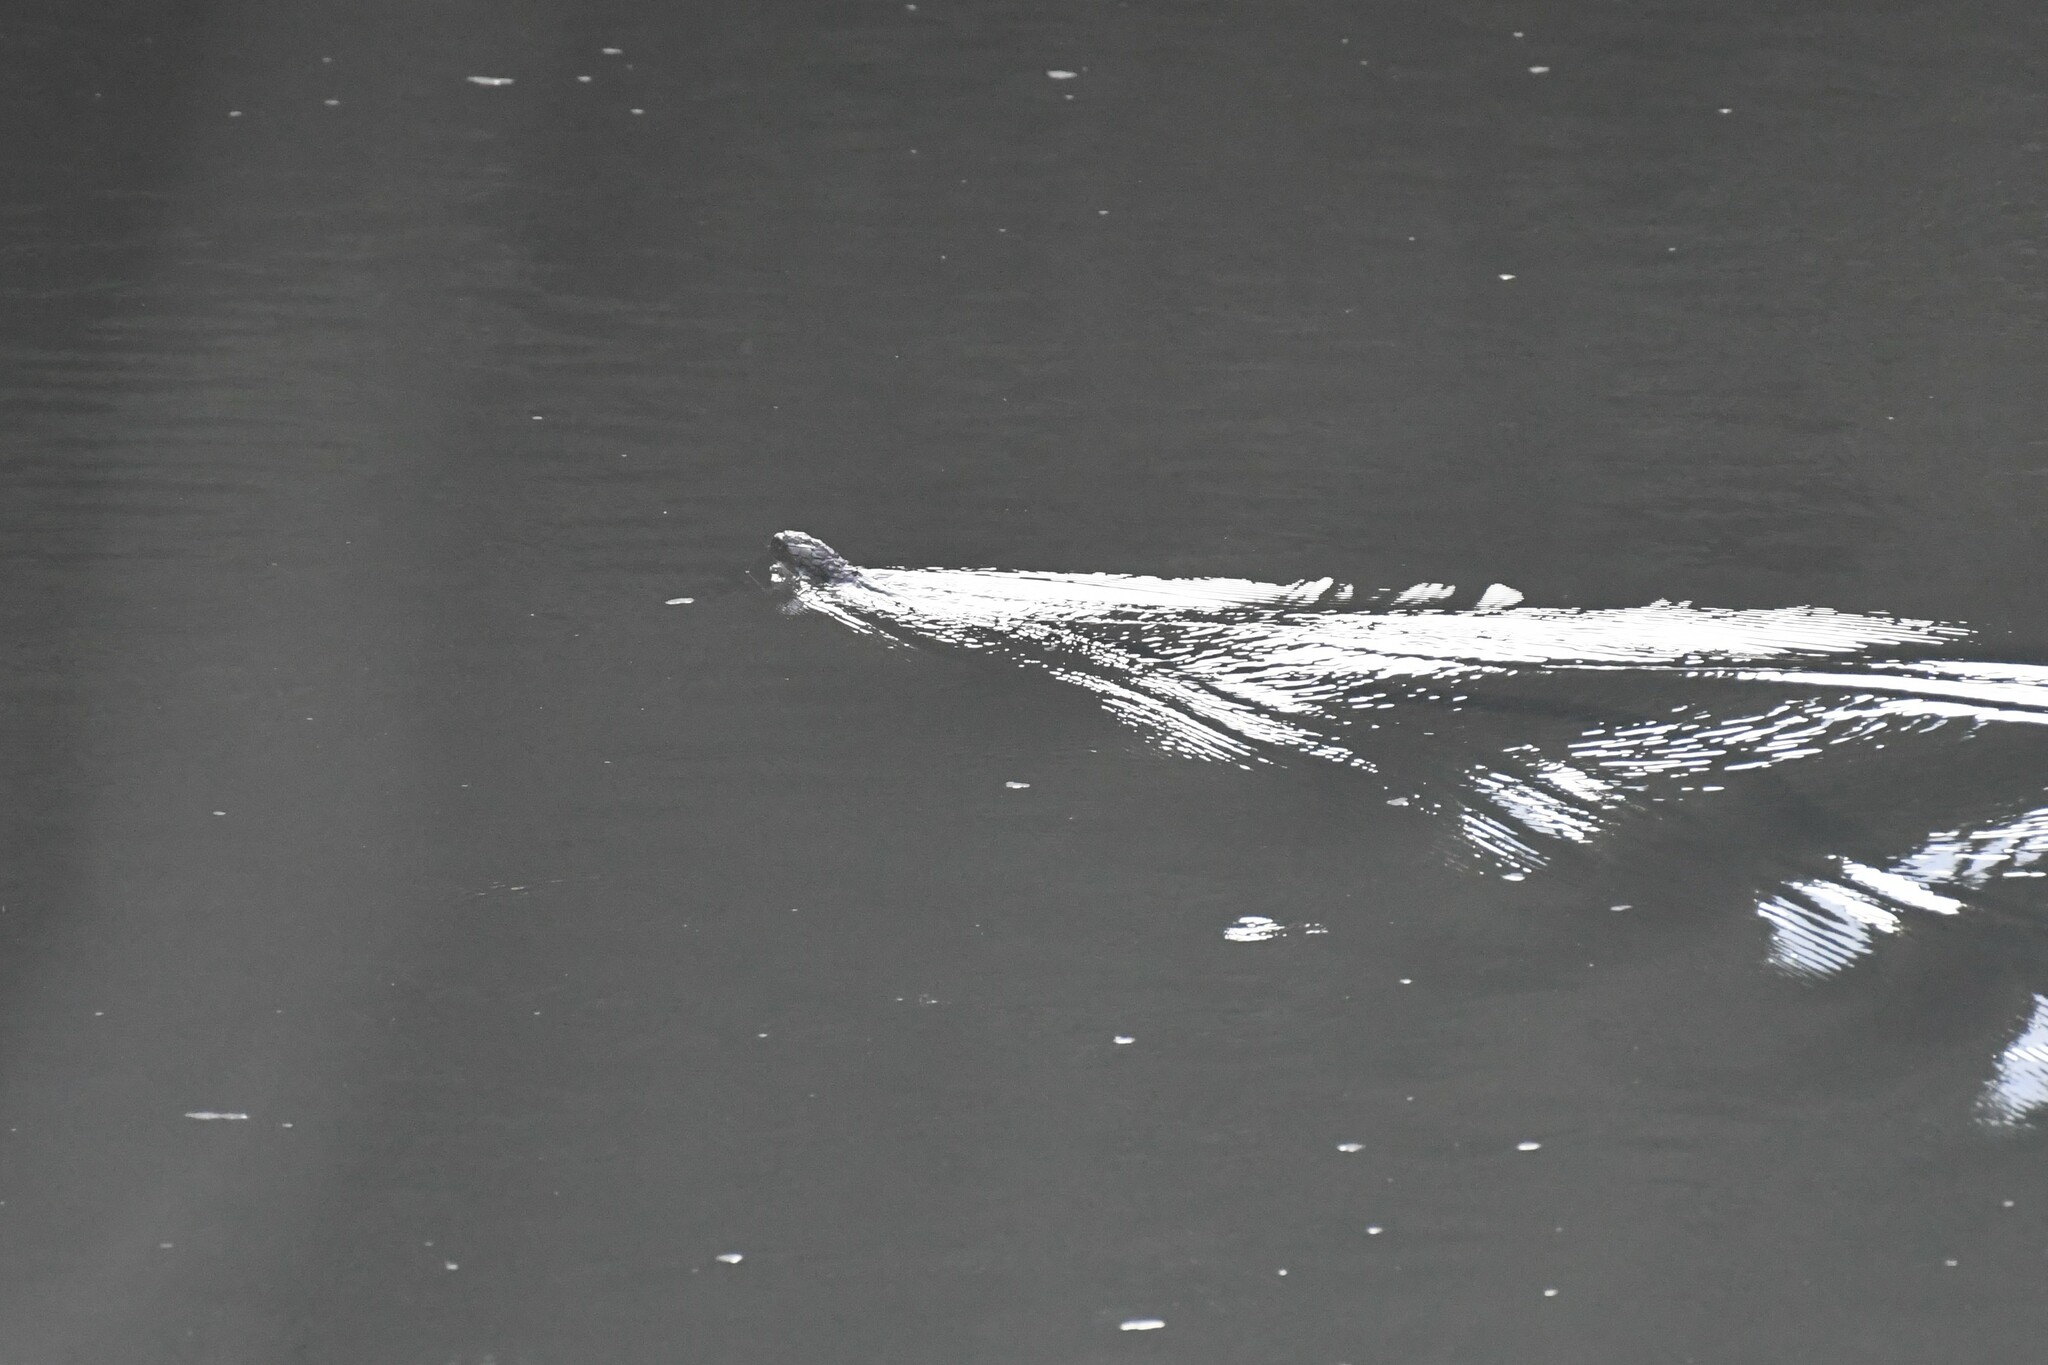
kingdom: Animalia
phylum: Chordata
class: Squamata
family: Elapidae
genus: Ophiophagus
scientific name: Ophiophagus hannah
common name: Hamadryad
